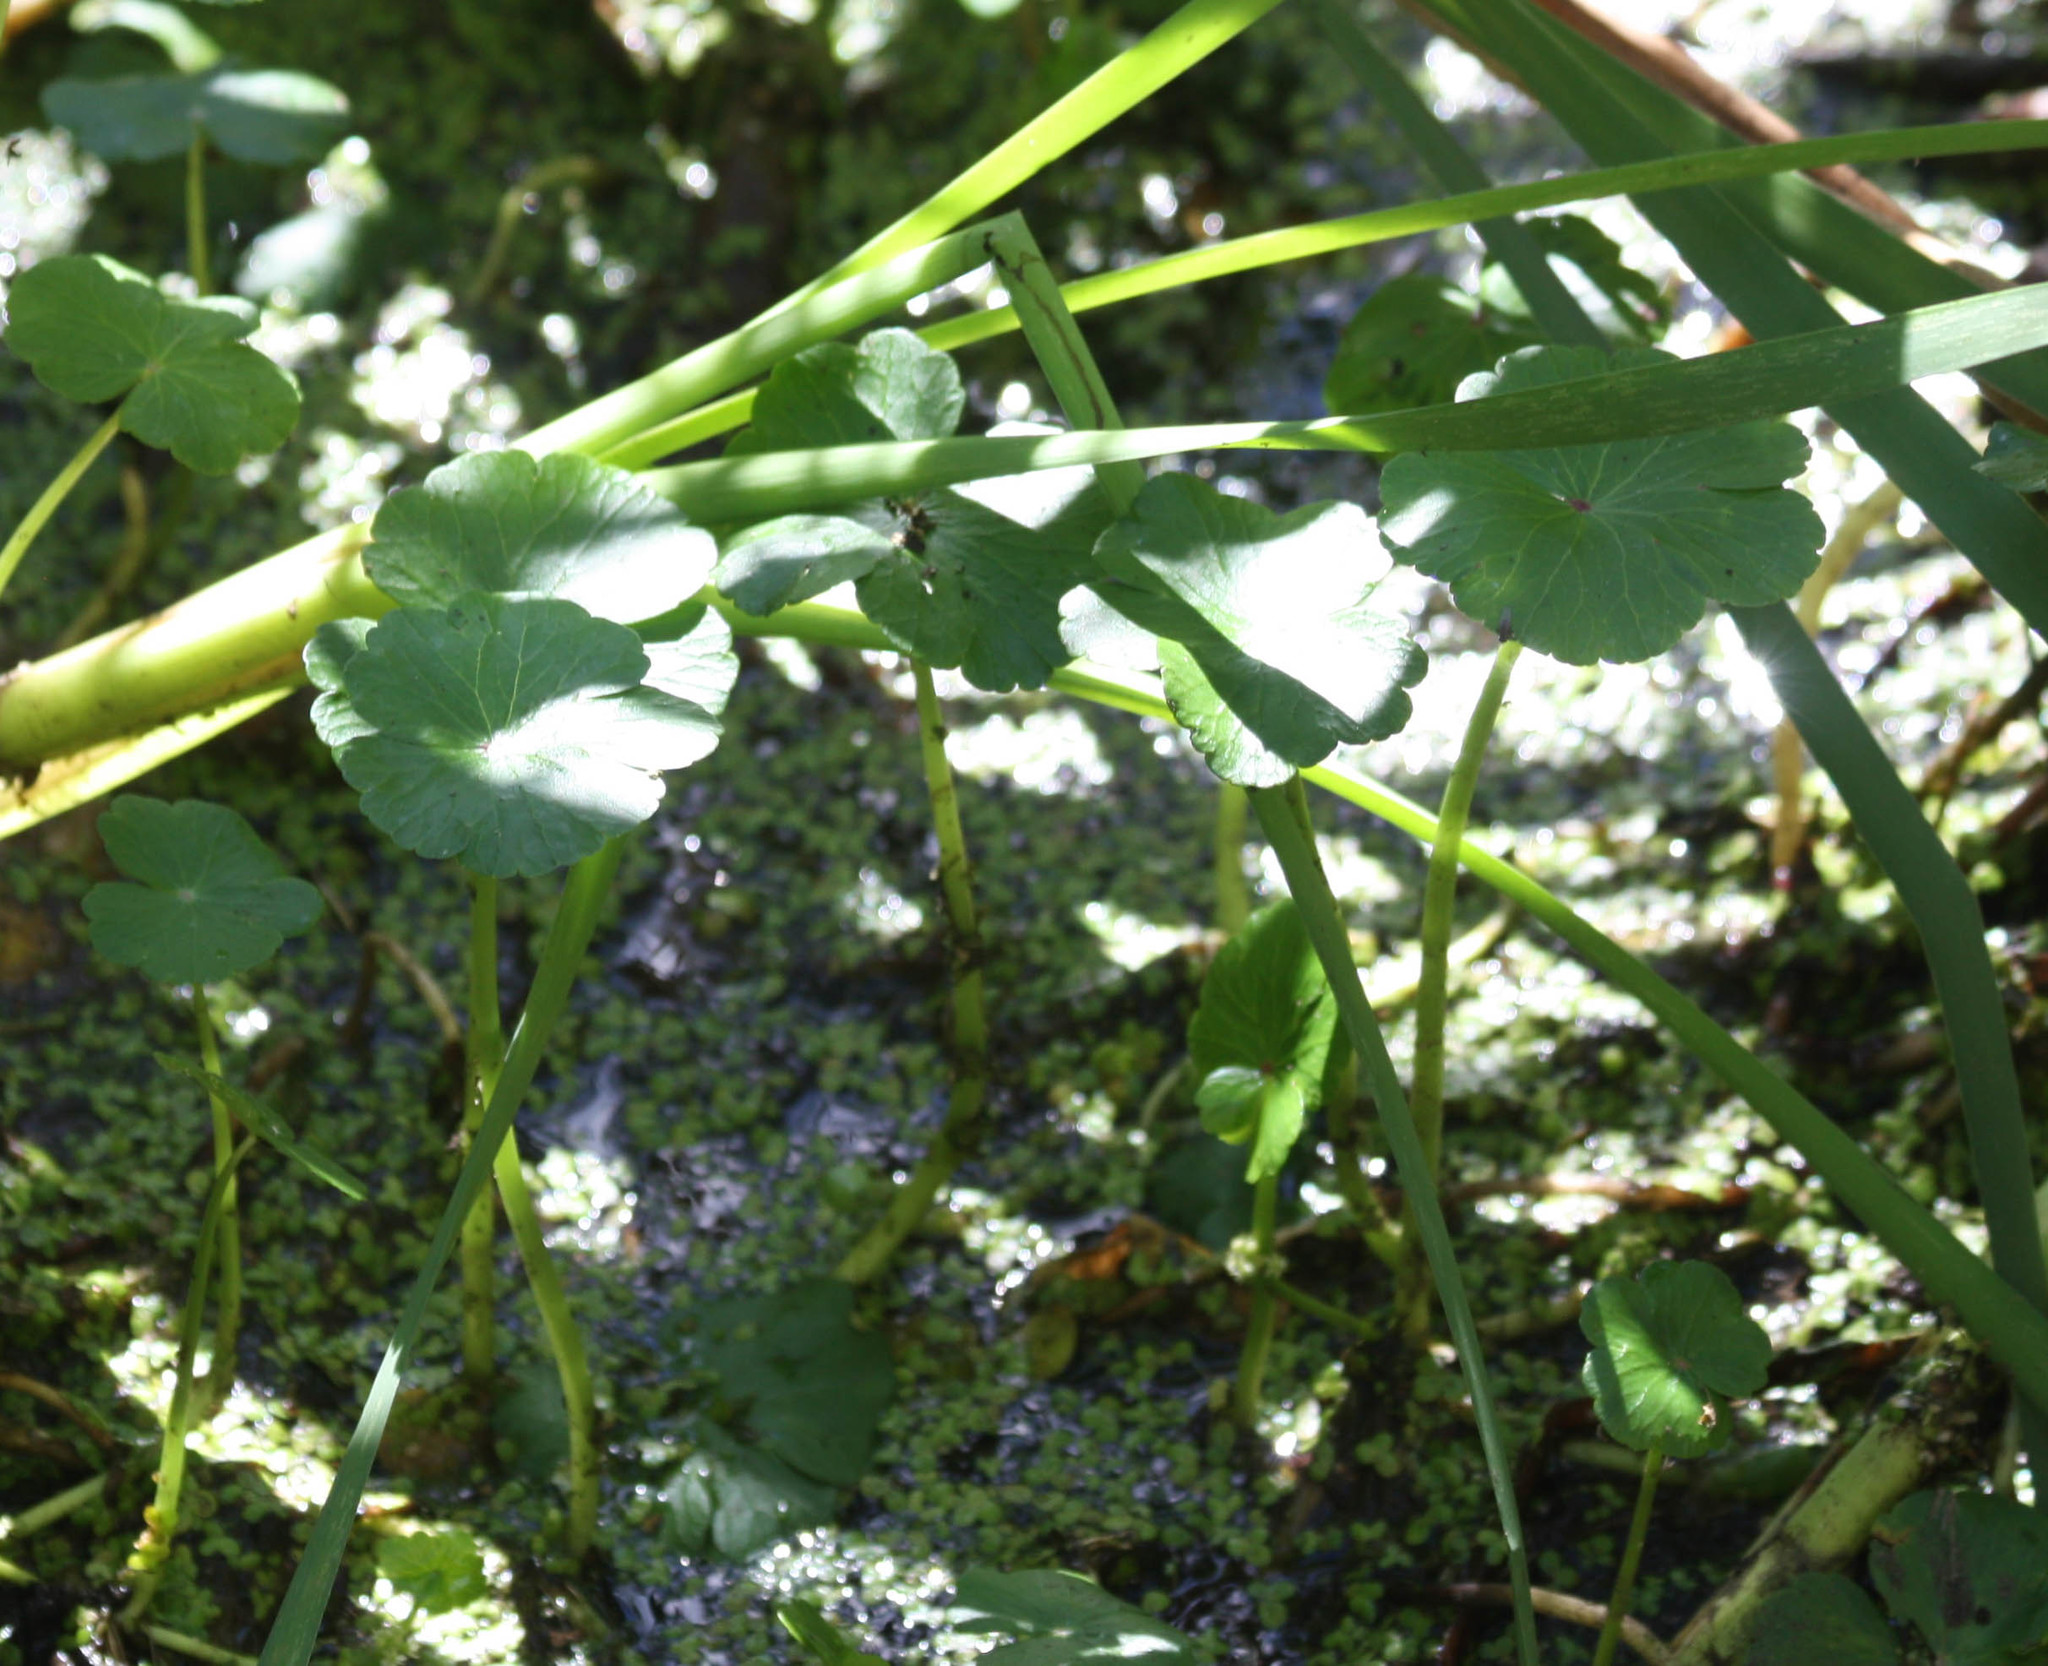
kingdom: Plantae
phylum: Tracheophyta
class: Magnoliopsida
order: Apiales
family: Araliaceae
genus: Hydrocotyle
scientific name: Hydrocotyle ranunculoides
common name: Floating pennywort
